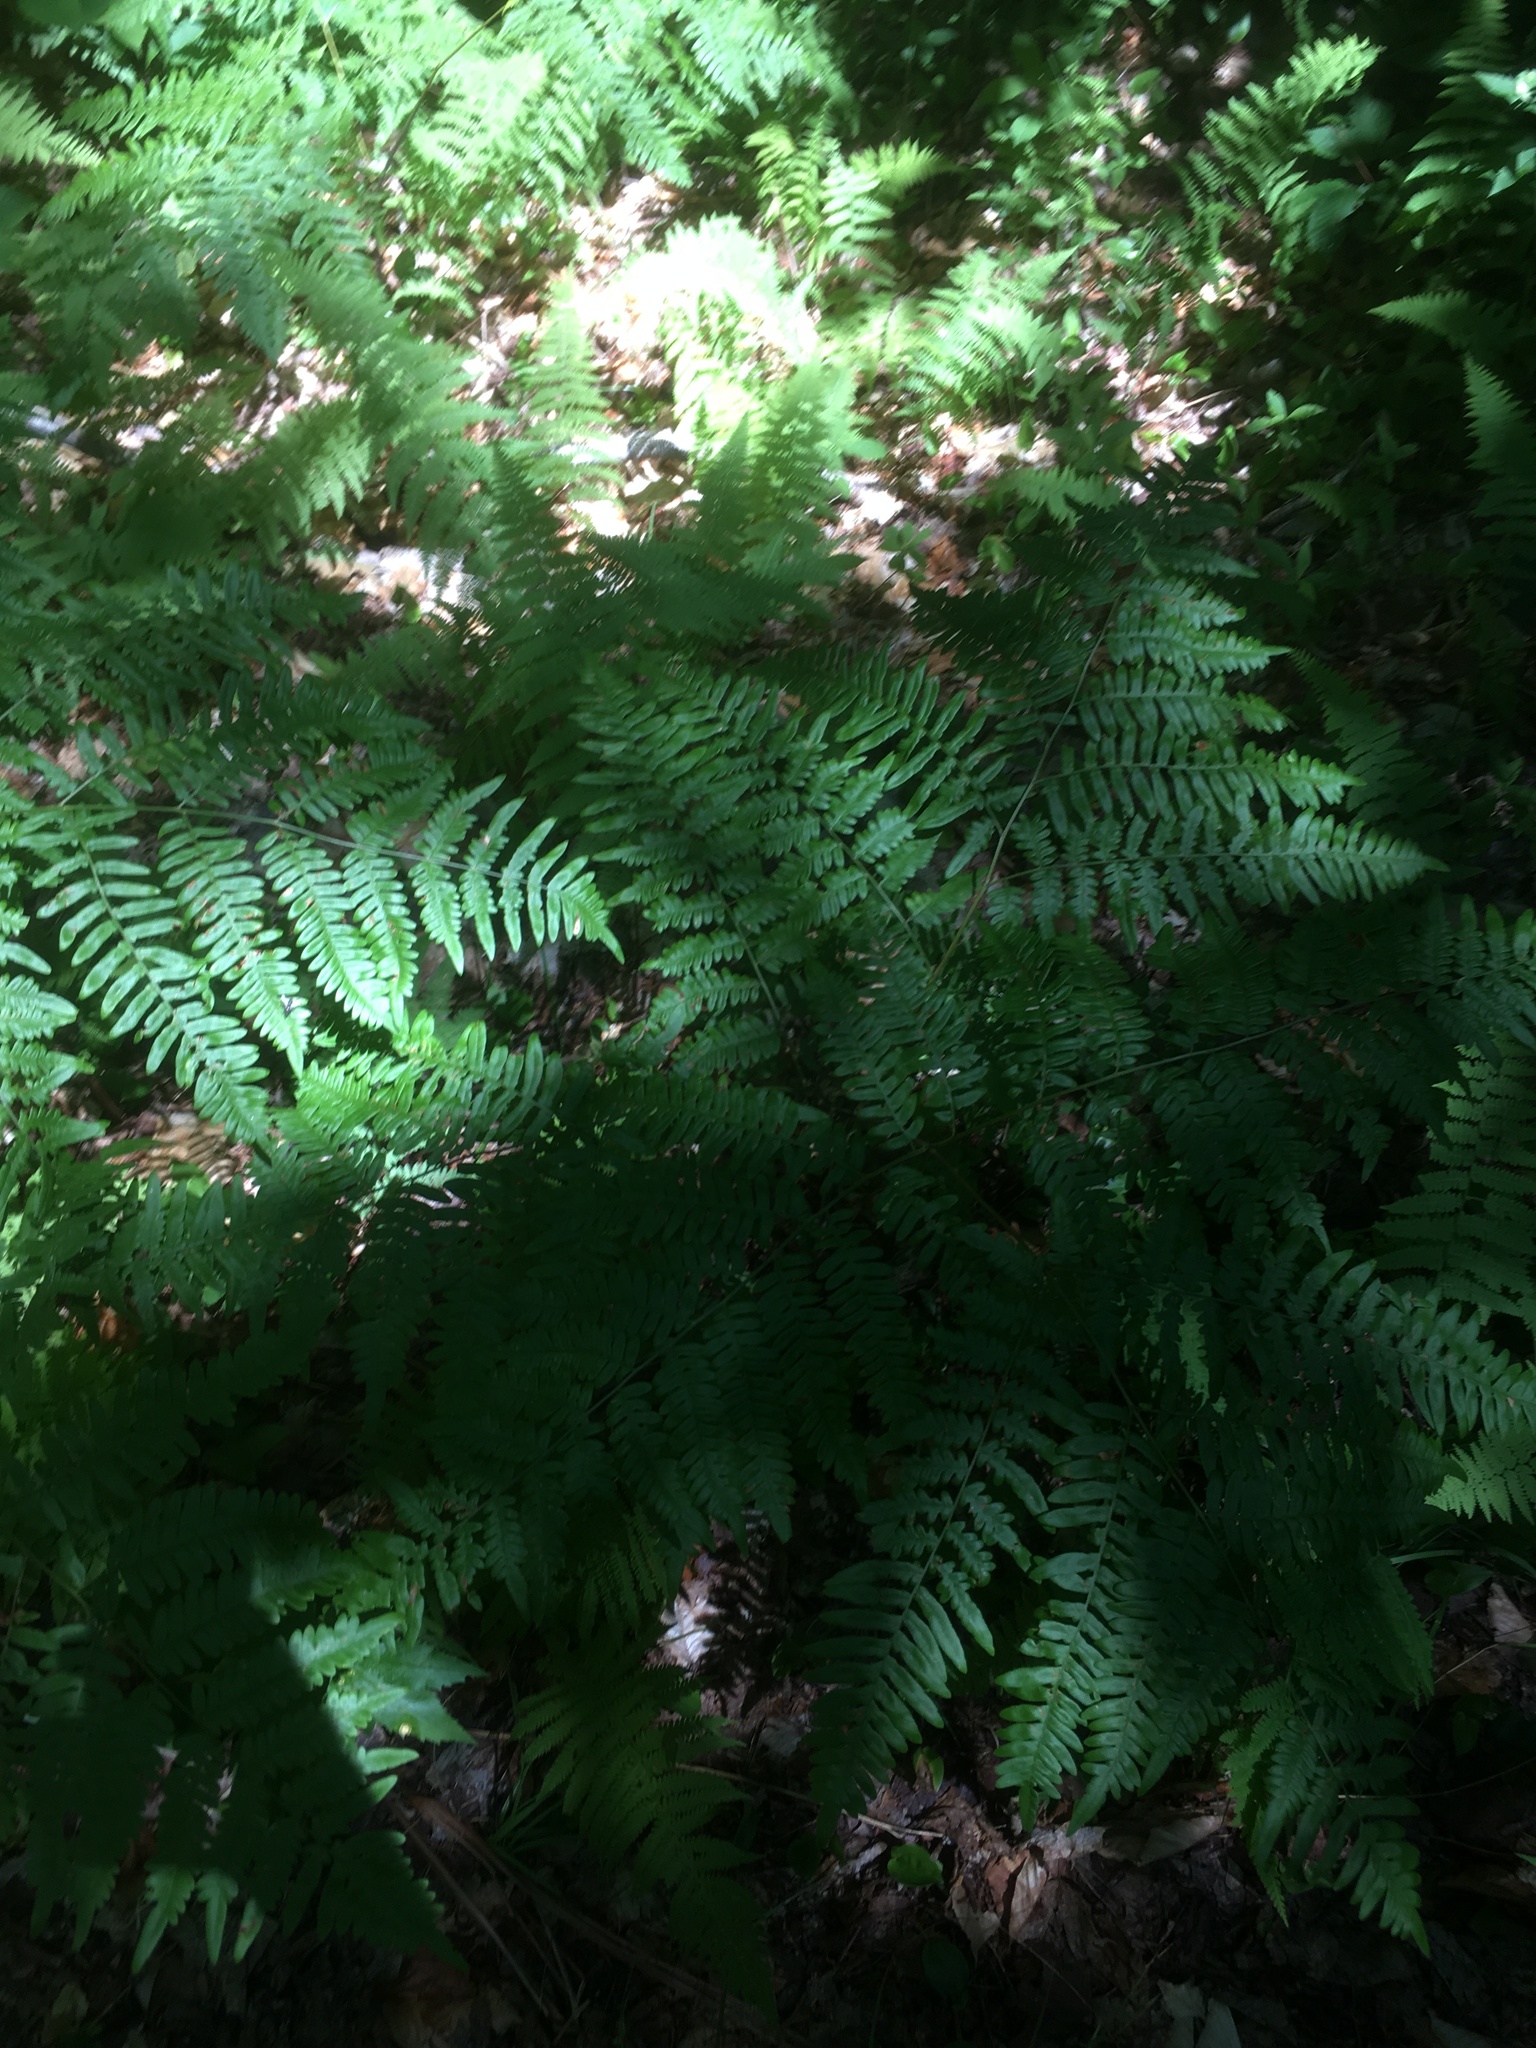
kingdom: Plantae
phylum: Tracheophyta
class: Polypodiopsida
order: Polypodiales
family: Dennstaedtiaceae
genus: Pteridium
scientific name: Pteridium aquilinum
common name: Bracken
